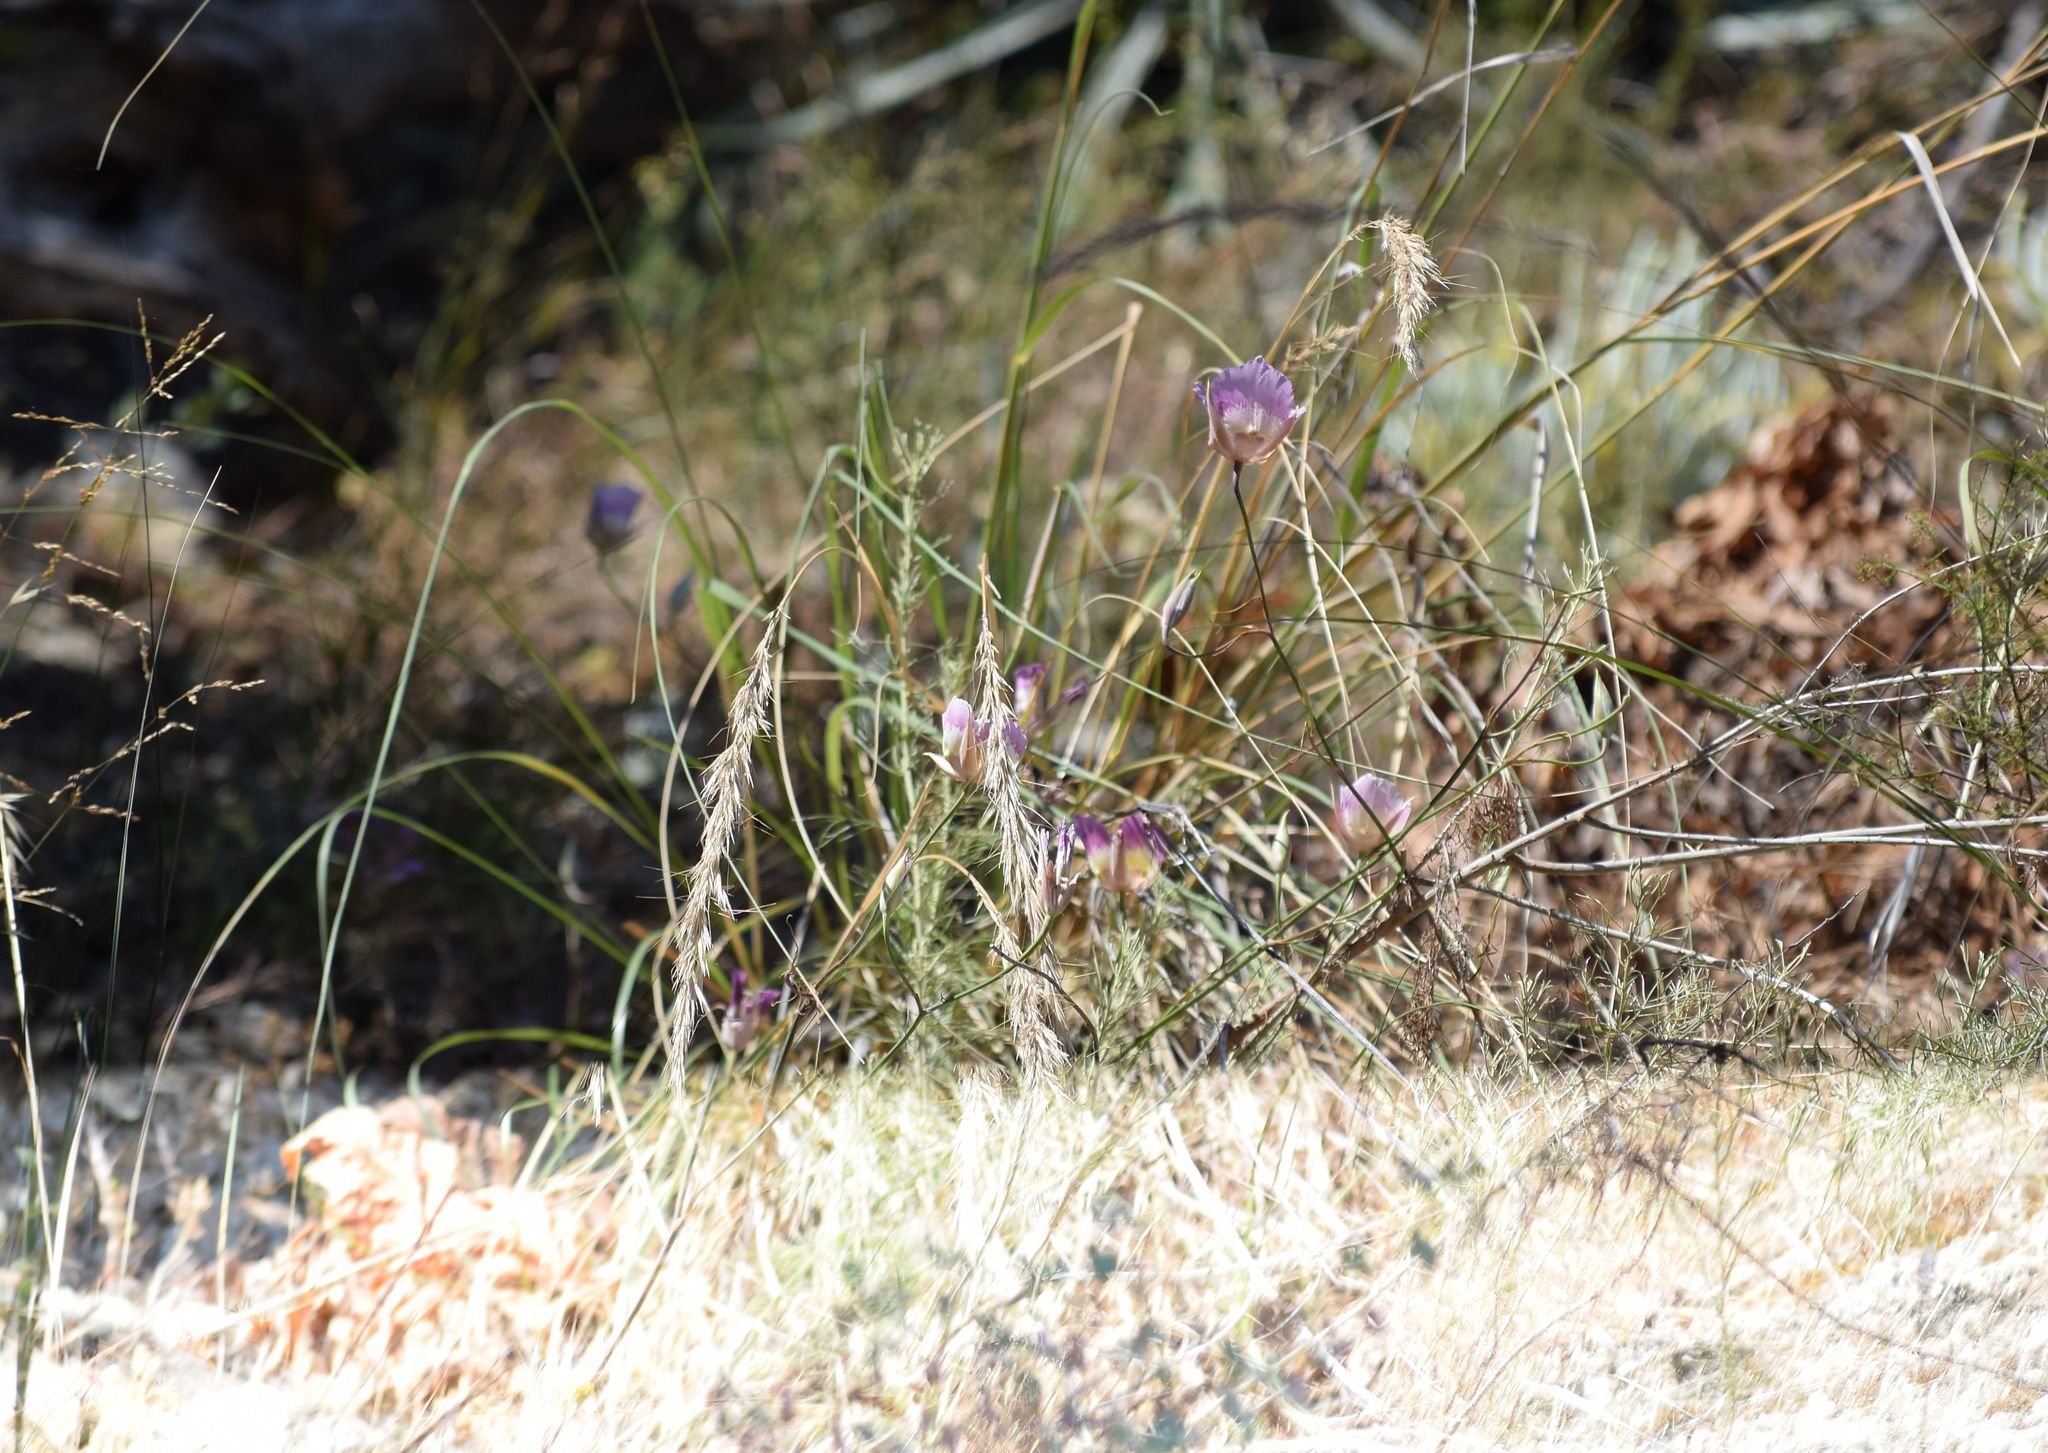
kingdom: Plantae
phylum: Tracheophyta
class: Liliopsida
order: Liliales
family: Liliaceae
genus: Calochortus
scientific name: Calochortus plummerae
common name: Plummer's mariposa-lily
